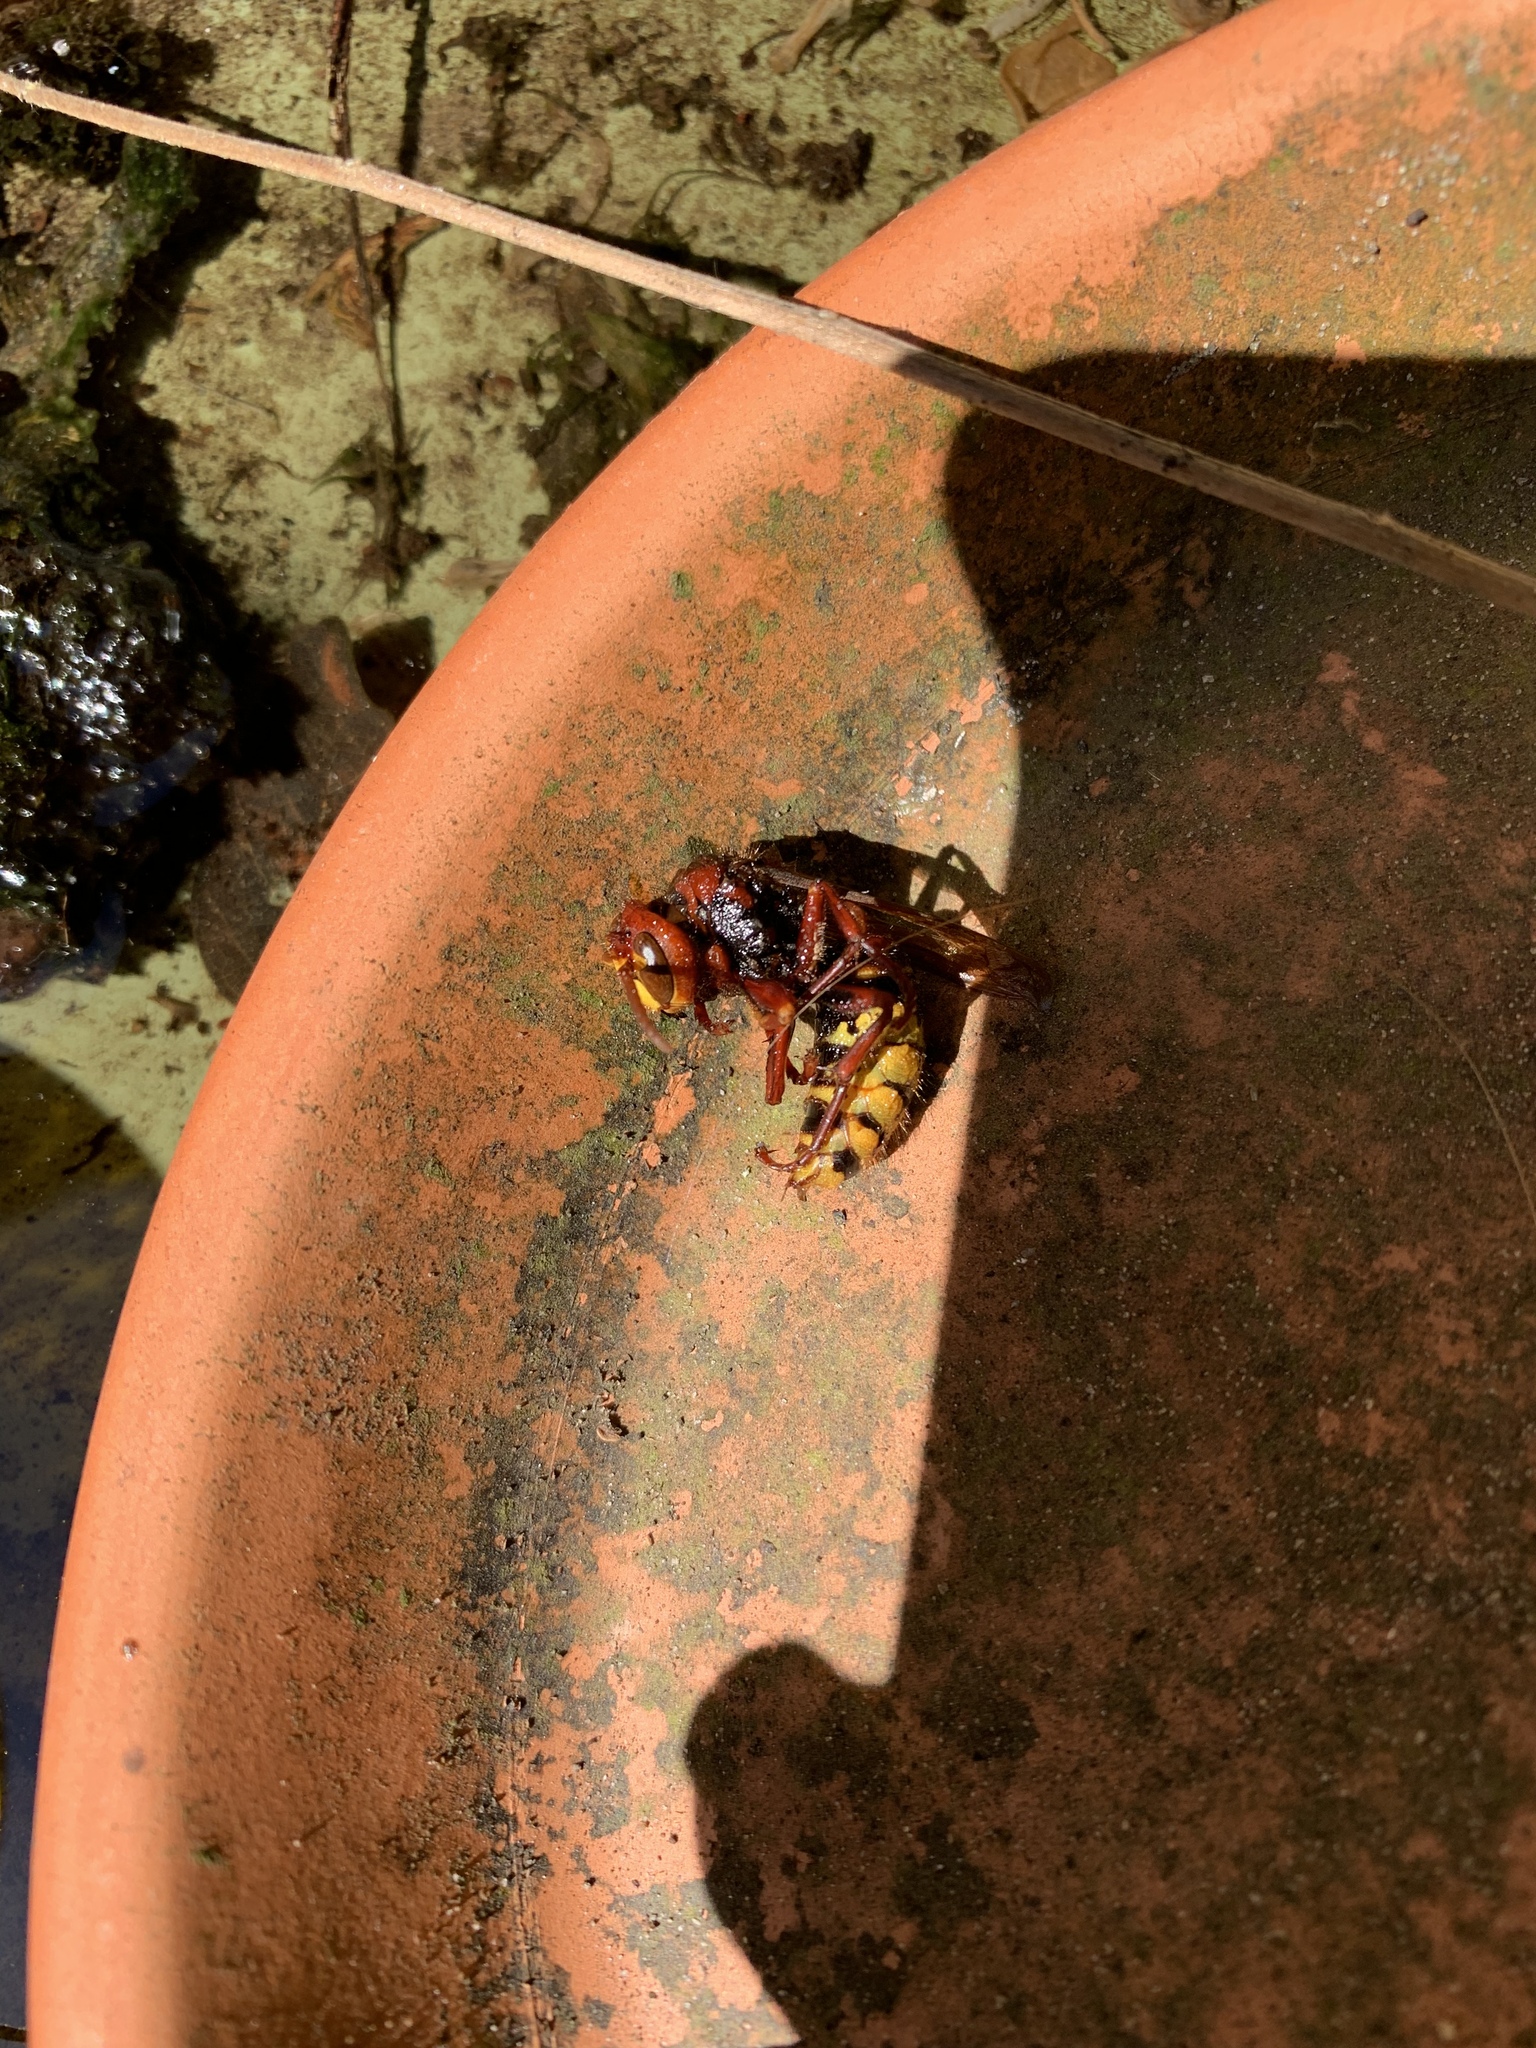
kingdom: Animalia
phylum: Arthropoda
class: Insecta
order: Hymenoptera
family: Vespidae
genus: Vespa
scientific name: Vespa crabro
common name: Hornet
